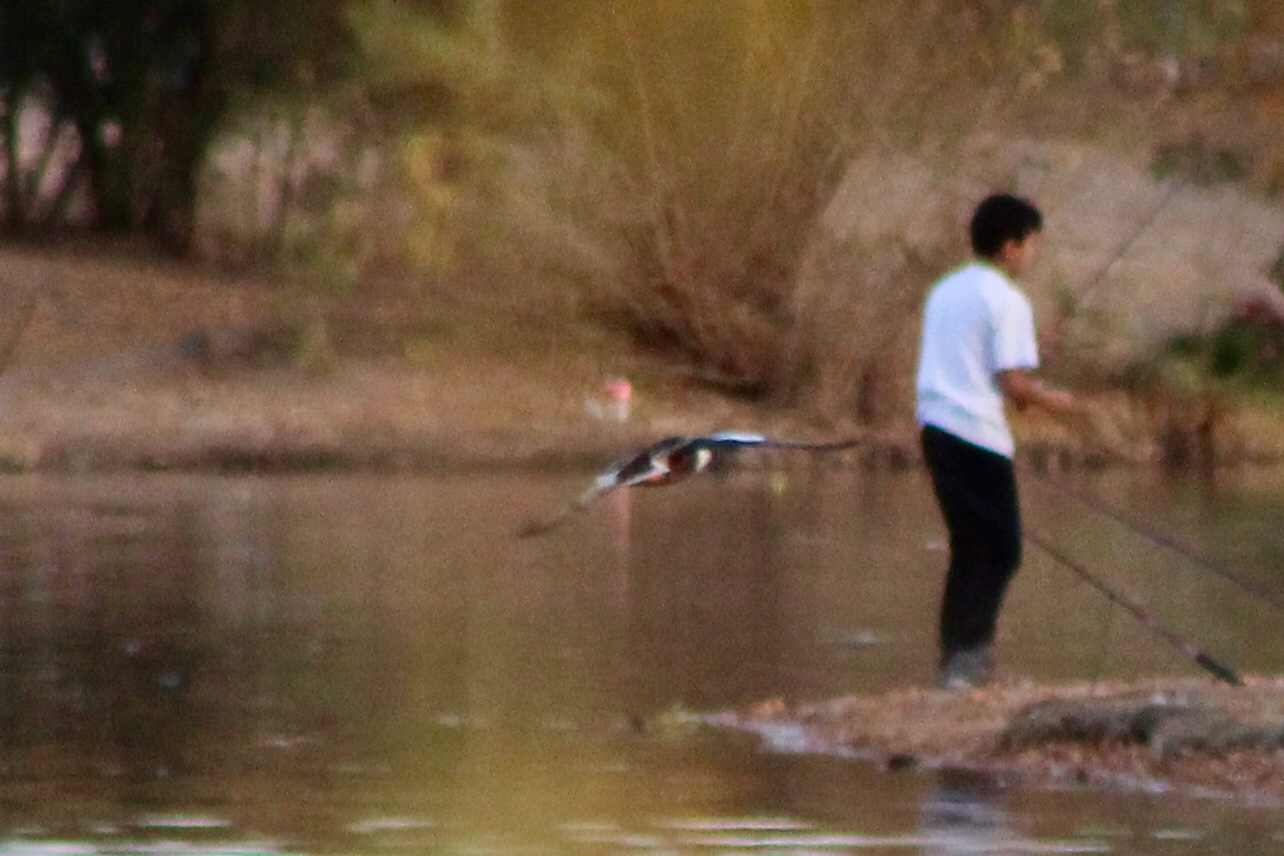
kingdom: Animalia
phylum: Chordata
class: Aves
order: Anseriformes
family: Anatidae
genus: Spatula
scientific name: Spatula clypeata
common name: Northern shoveler
